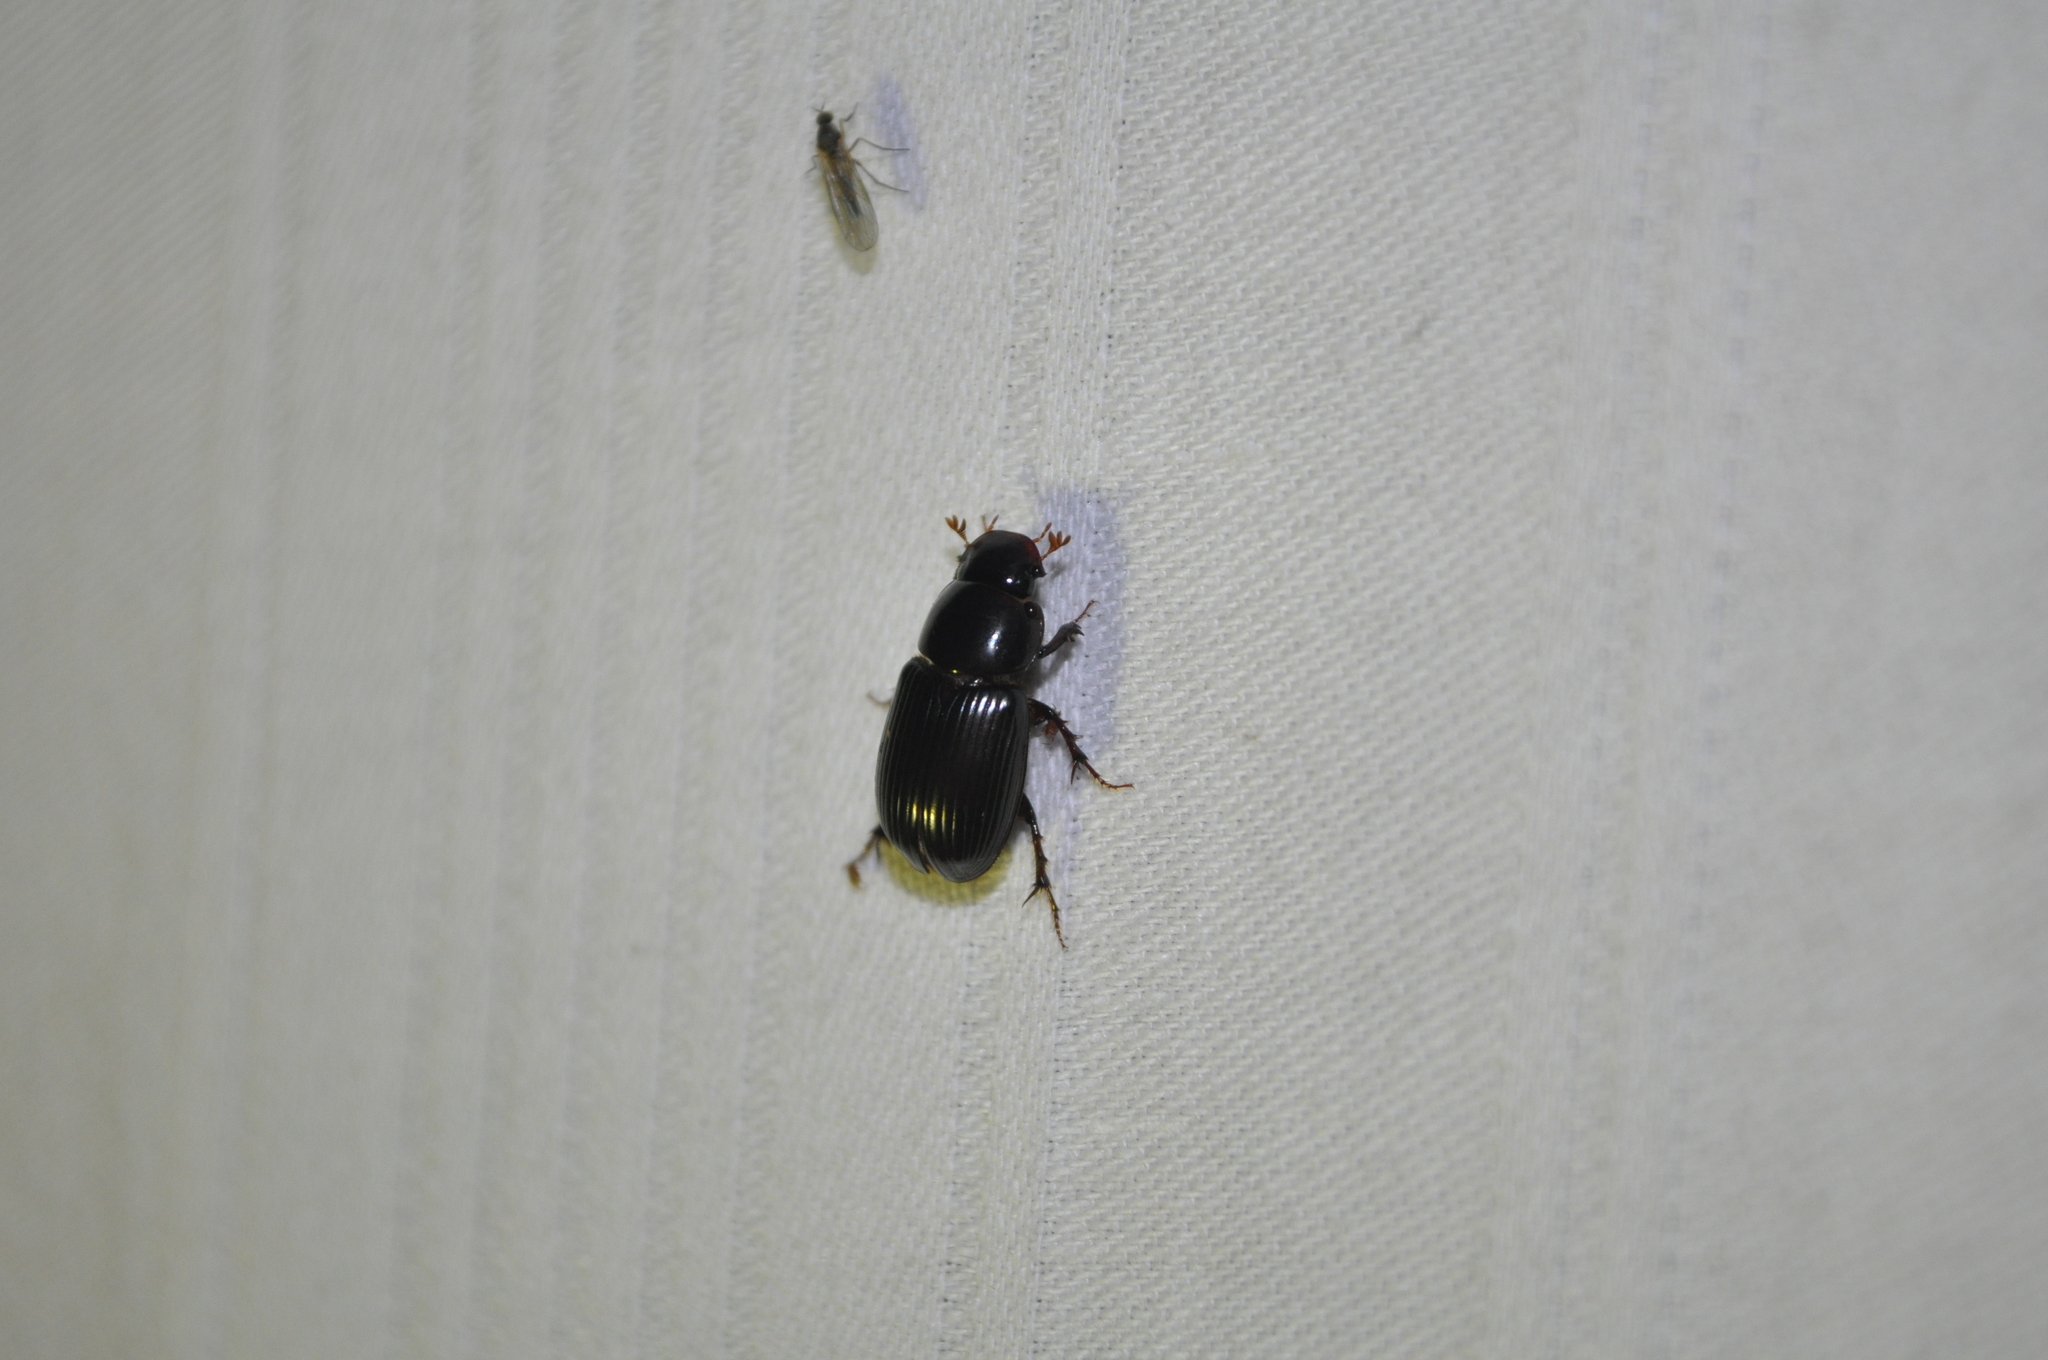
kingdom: Animalia
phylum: Arthropoda
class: Insecta
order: Coleoptera
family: Scarabaeidae
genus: Acrossus
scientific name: Acrossus rufipes
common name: Night-flying dung beetle
